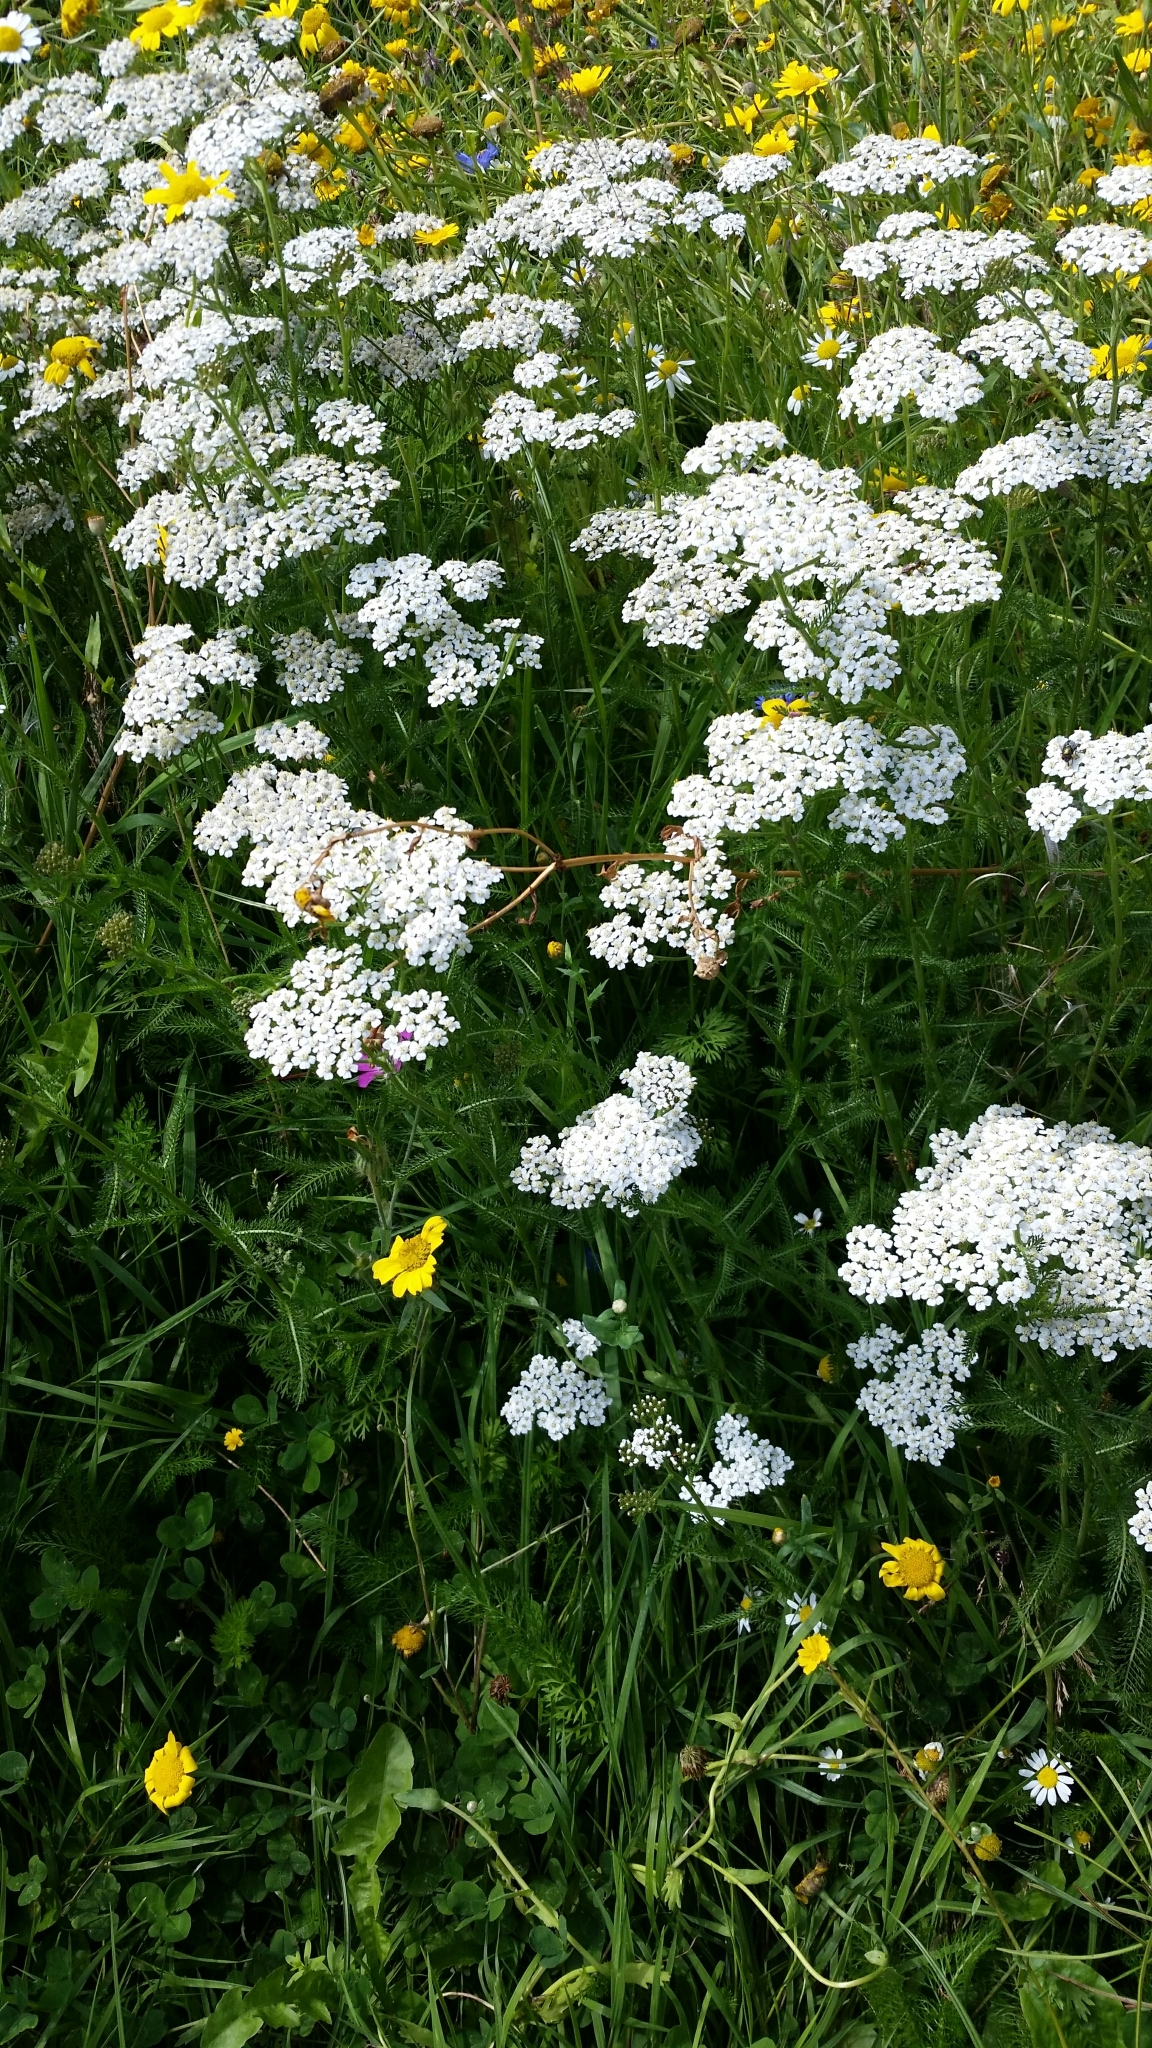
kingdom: Plantae
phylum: Tracheophyta
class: Magnoliopsida
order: Asterales
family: Asteraceae
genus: Achillea
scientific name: Achillea millefolium
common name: Yarrow
